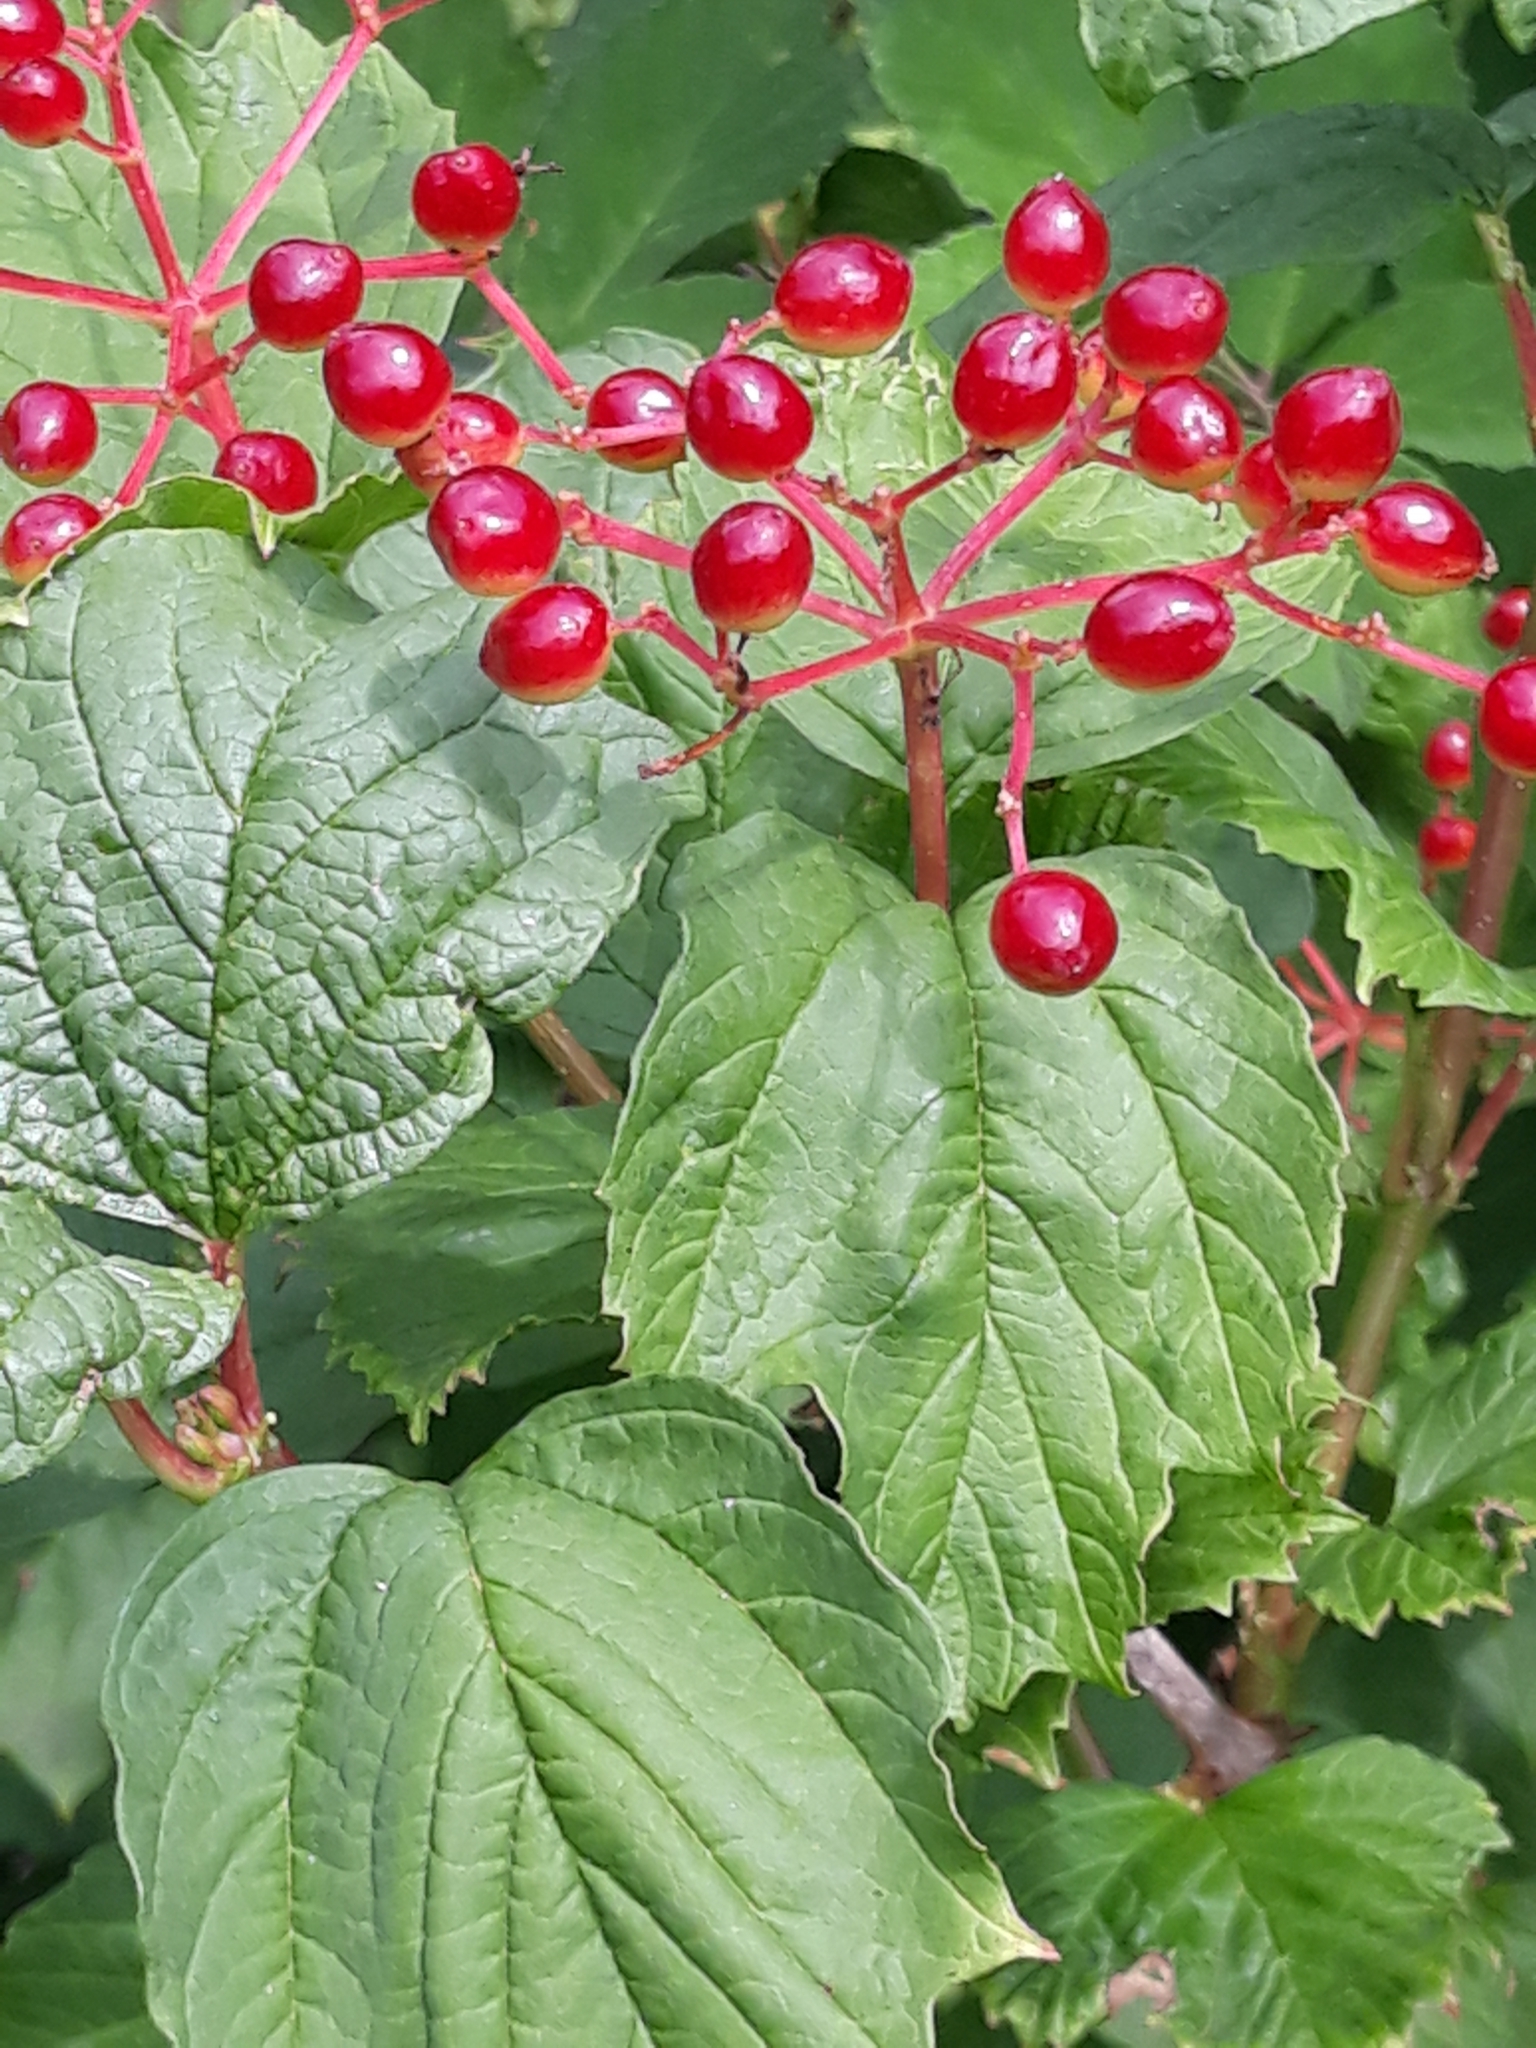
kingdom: Plantae
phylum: Tracheophyta
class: Magnoliopsida
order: Dipsacales
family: Viburnaceae
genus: Viburnum
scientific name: Viburnum opulus
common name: Guelder-rose
